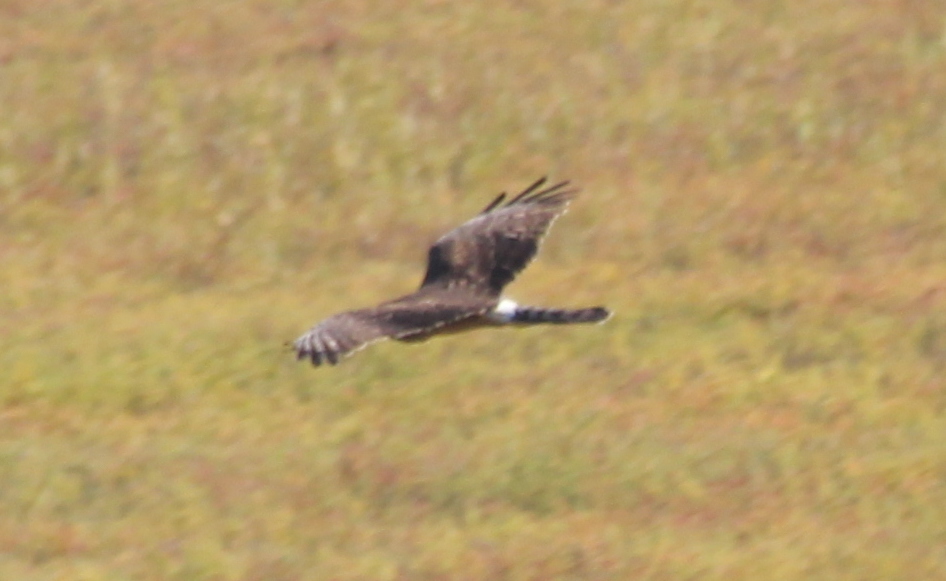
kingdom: Animalia
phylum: Chordata
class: Aves
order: Accipitriformes
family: Accipitridae
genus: Circus
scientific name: Circus cyaneus
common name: Hen harrier
